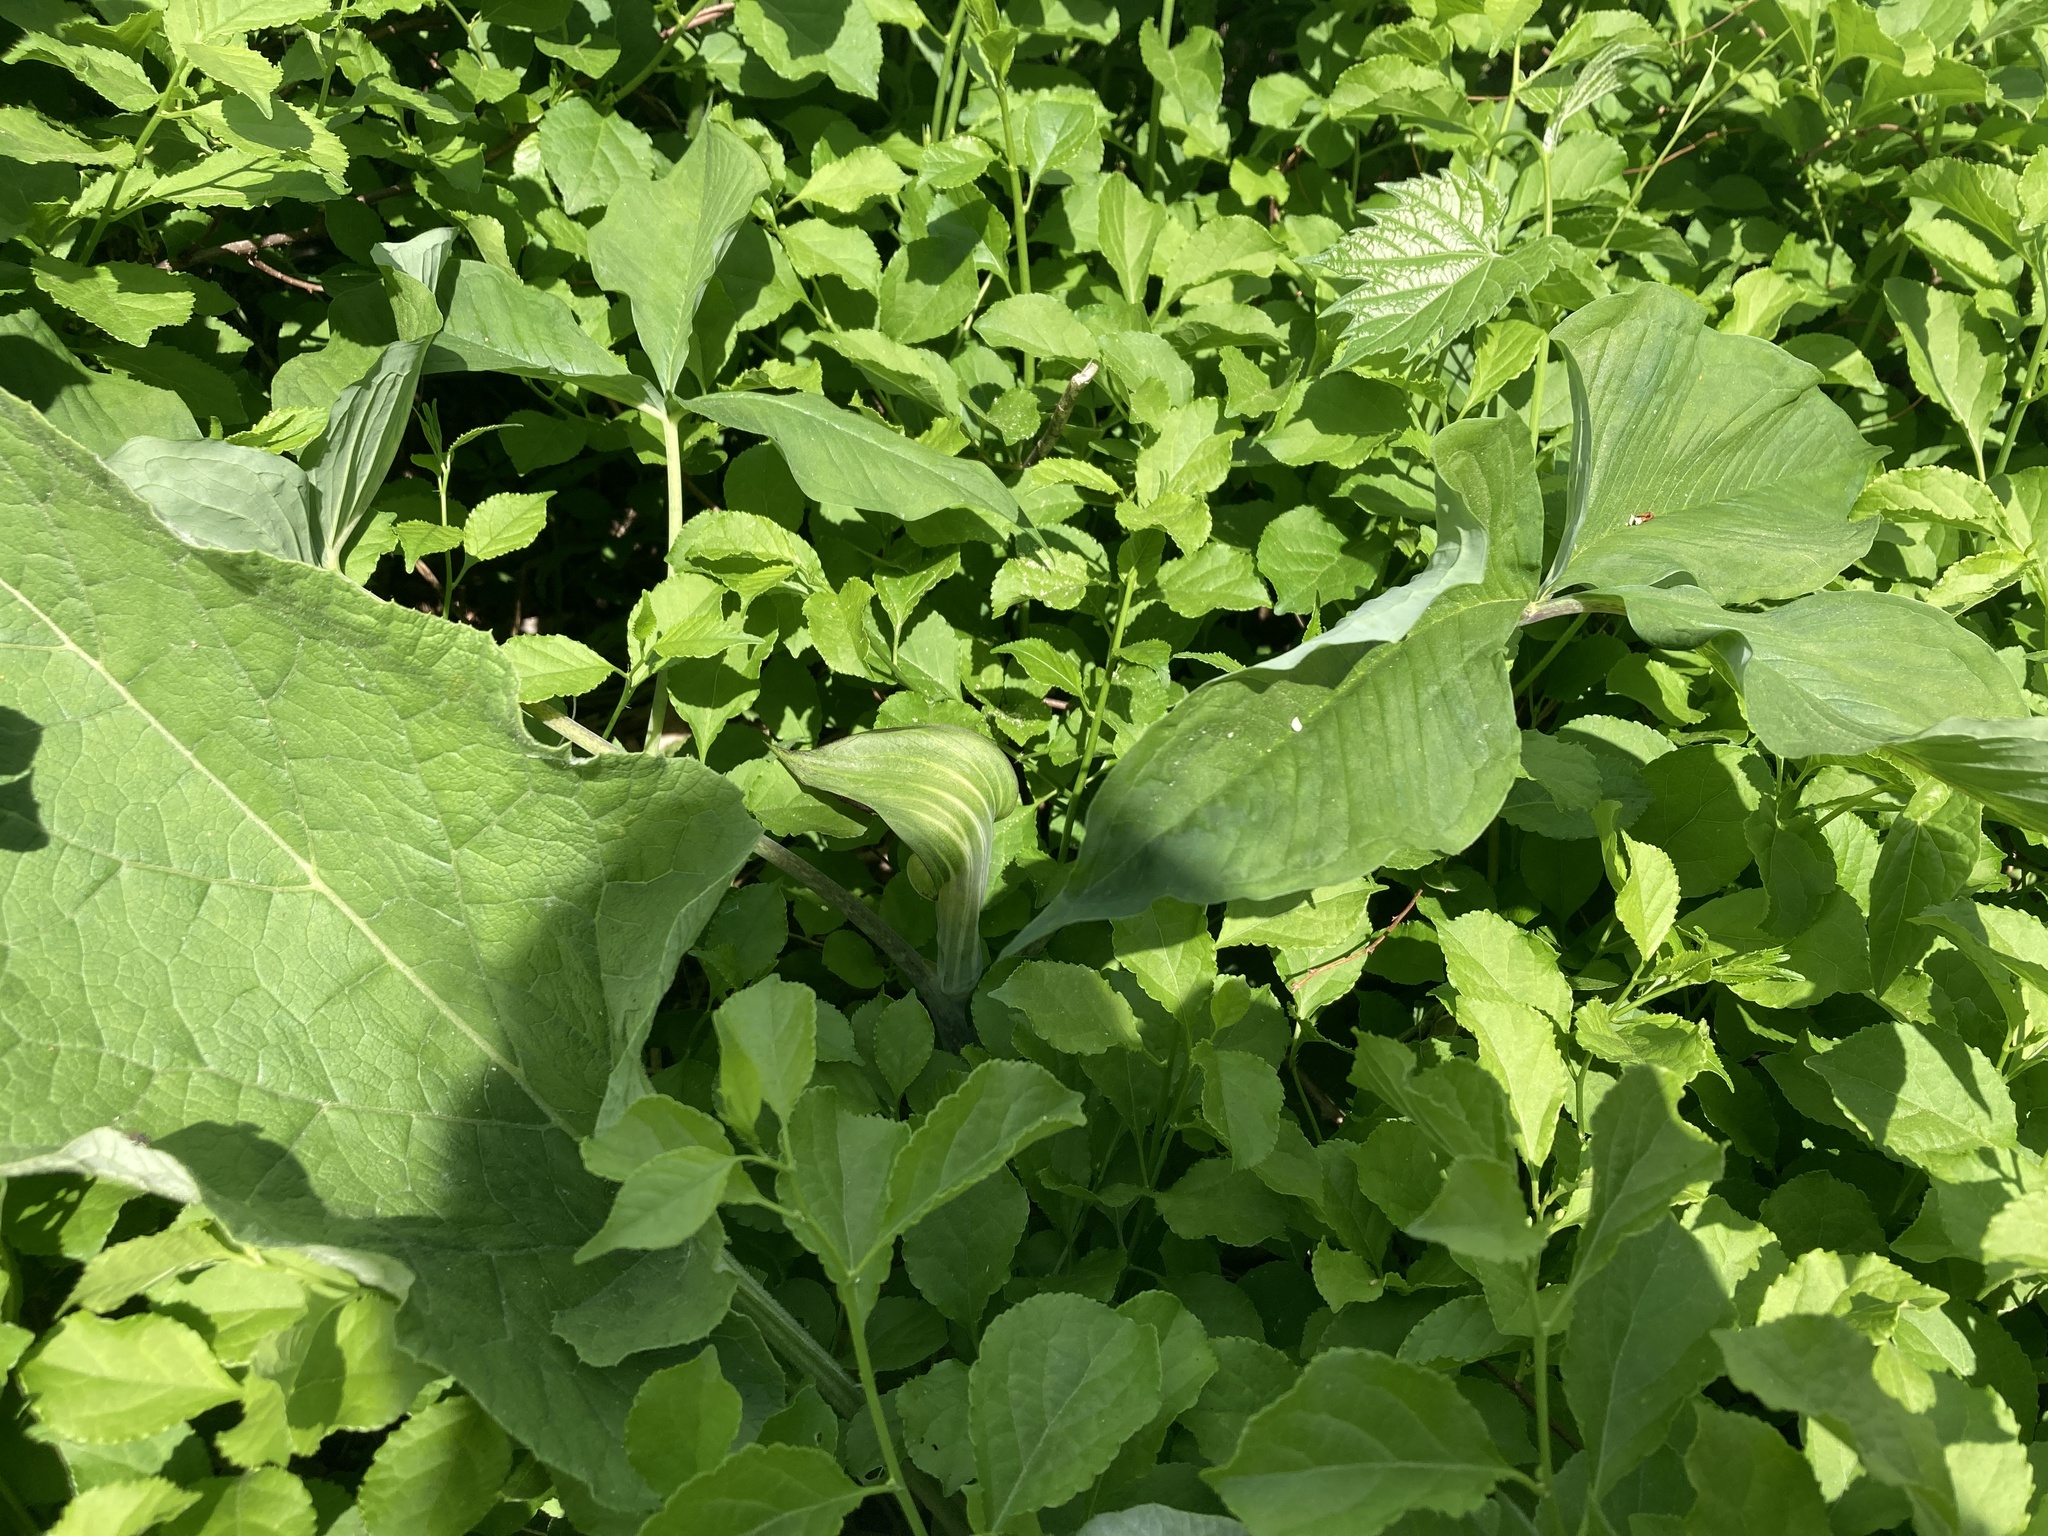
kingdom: Plantae
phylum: Tracheophyta
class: Liliopsida
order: Alismatales
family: Araceae
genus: Arisaema
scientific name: Arisaema triphyllum
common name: Jack-in-the-pulpit
